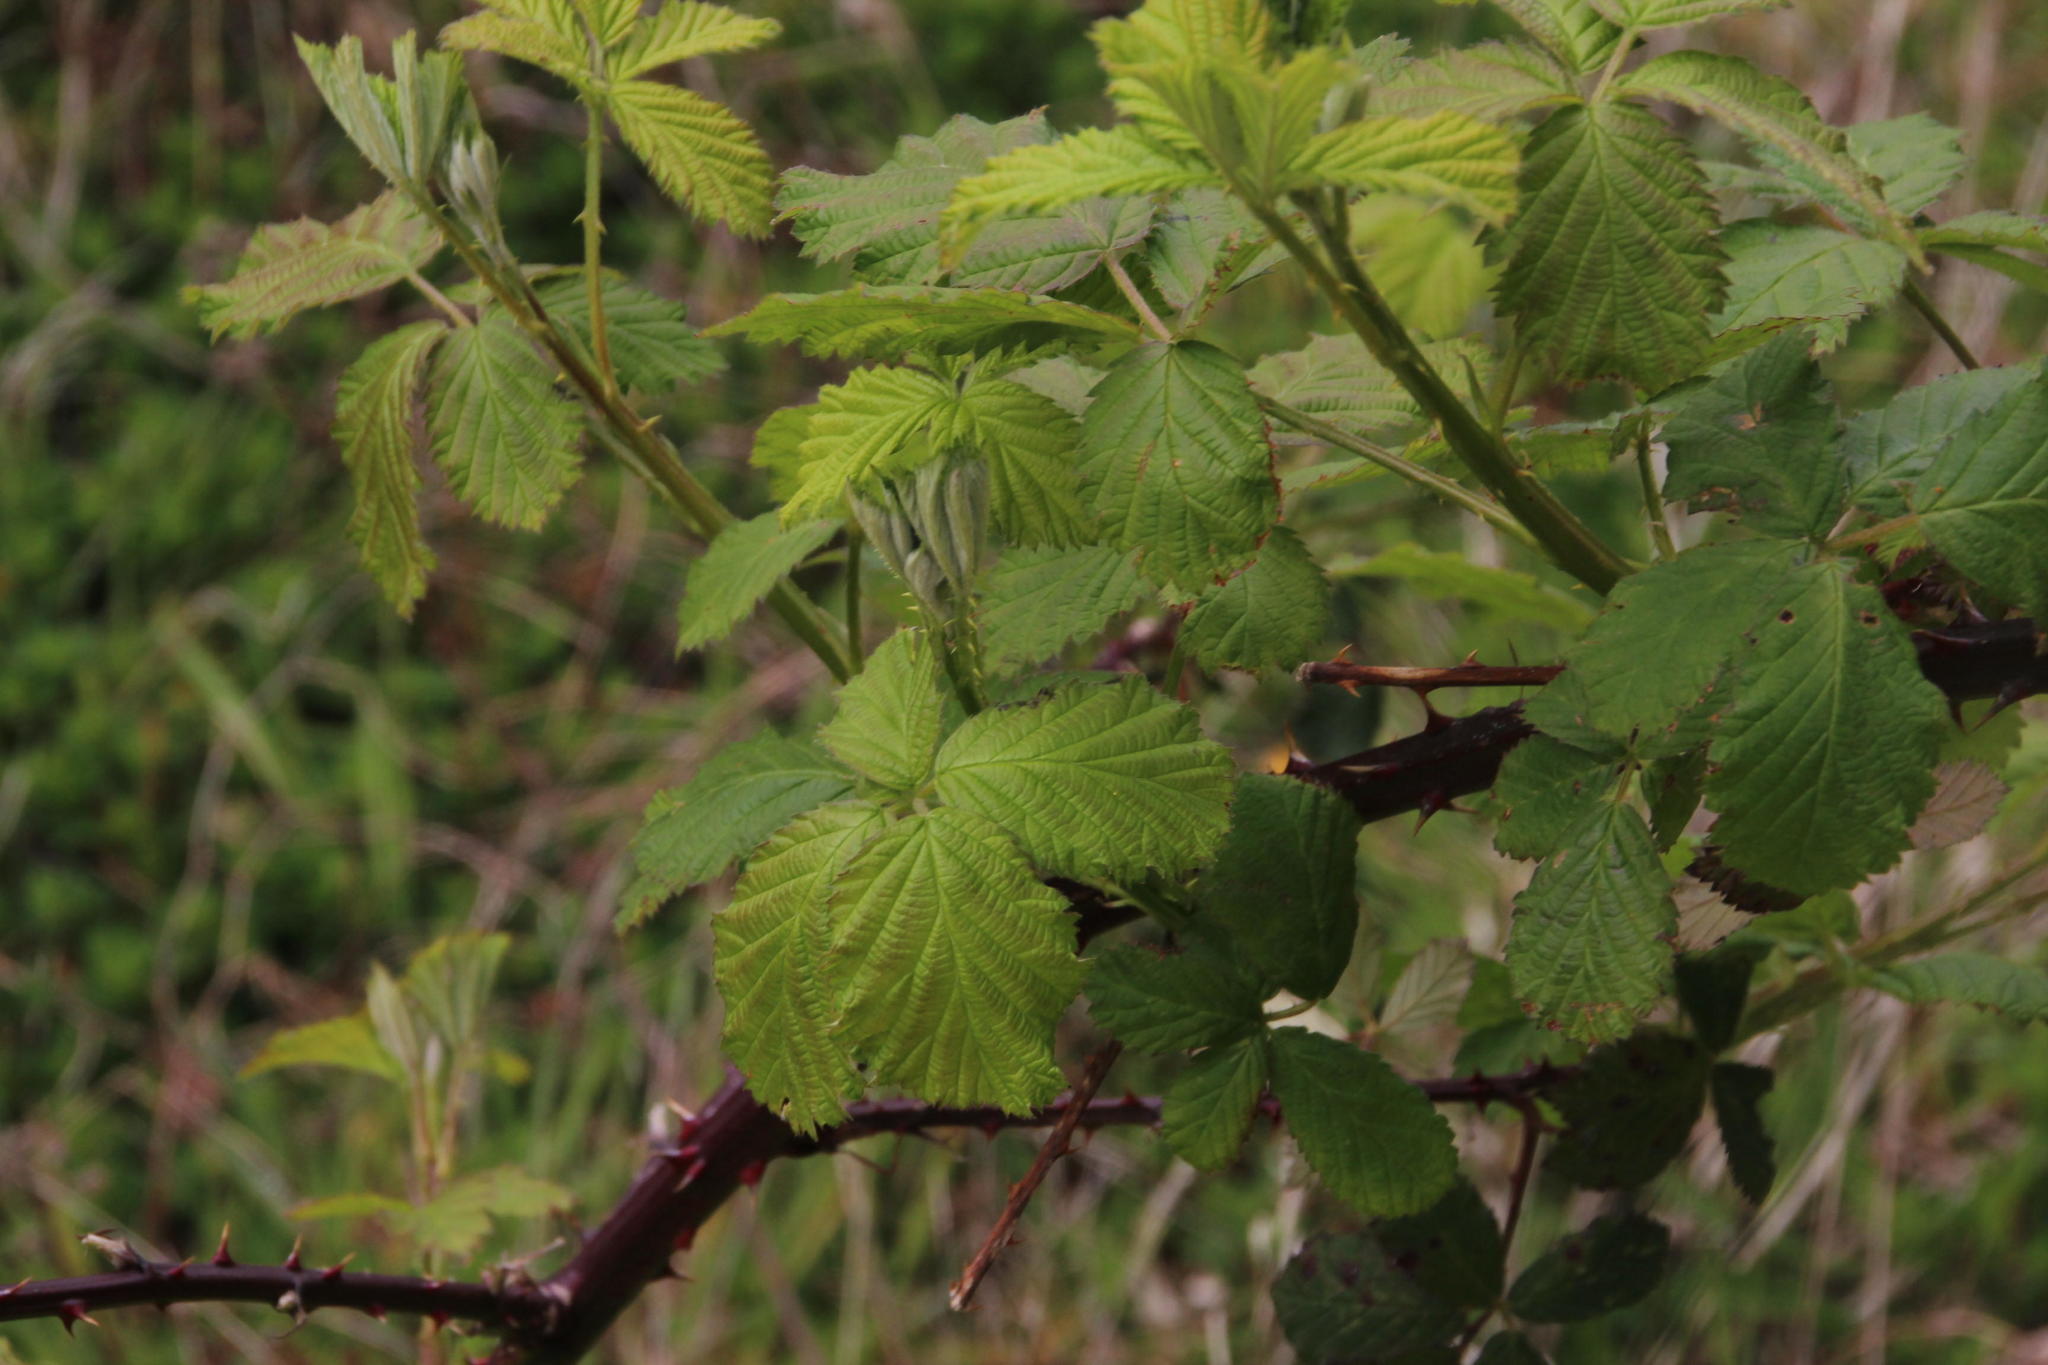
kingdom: Plantae
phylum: Tracheophyta
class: Magnoliopsida
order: Rosales
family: Rosaceae
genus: Rubus
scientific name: Rubus ulmifolius
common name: Elmleaf blackberry
